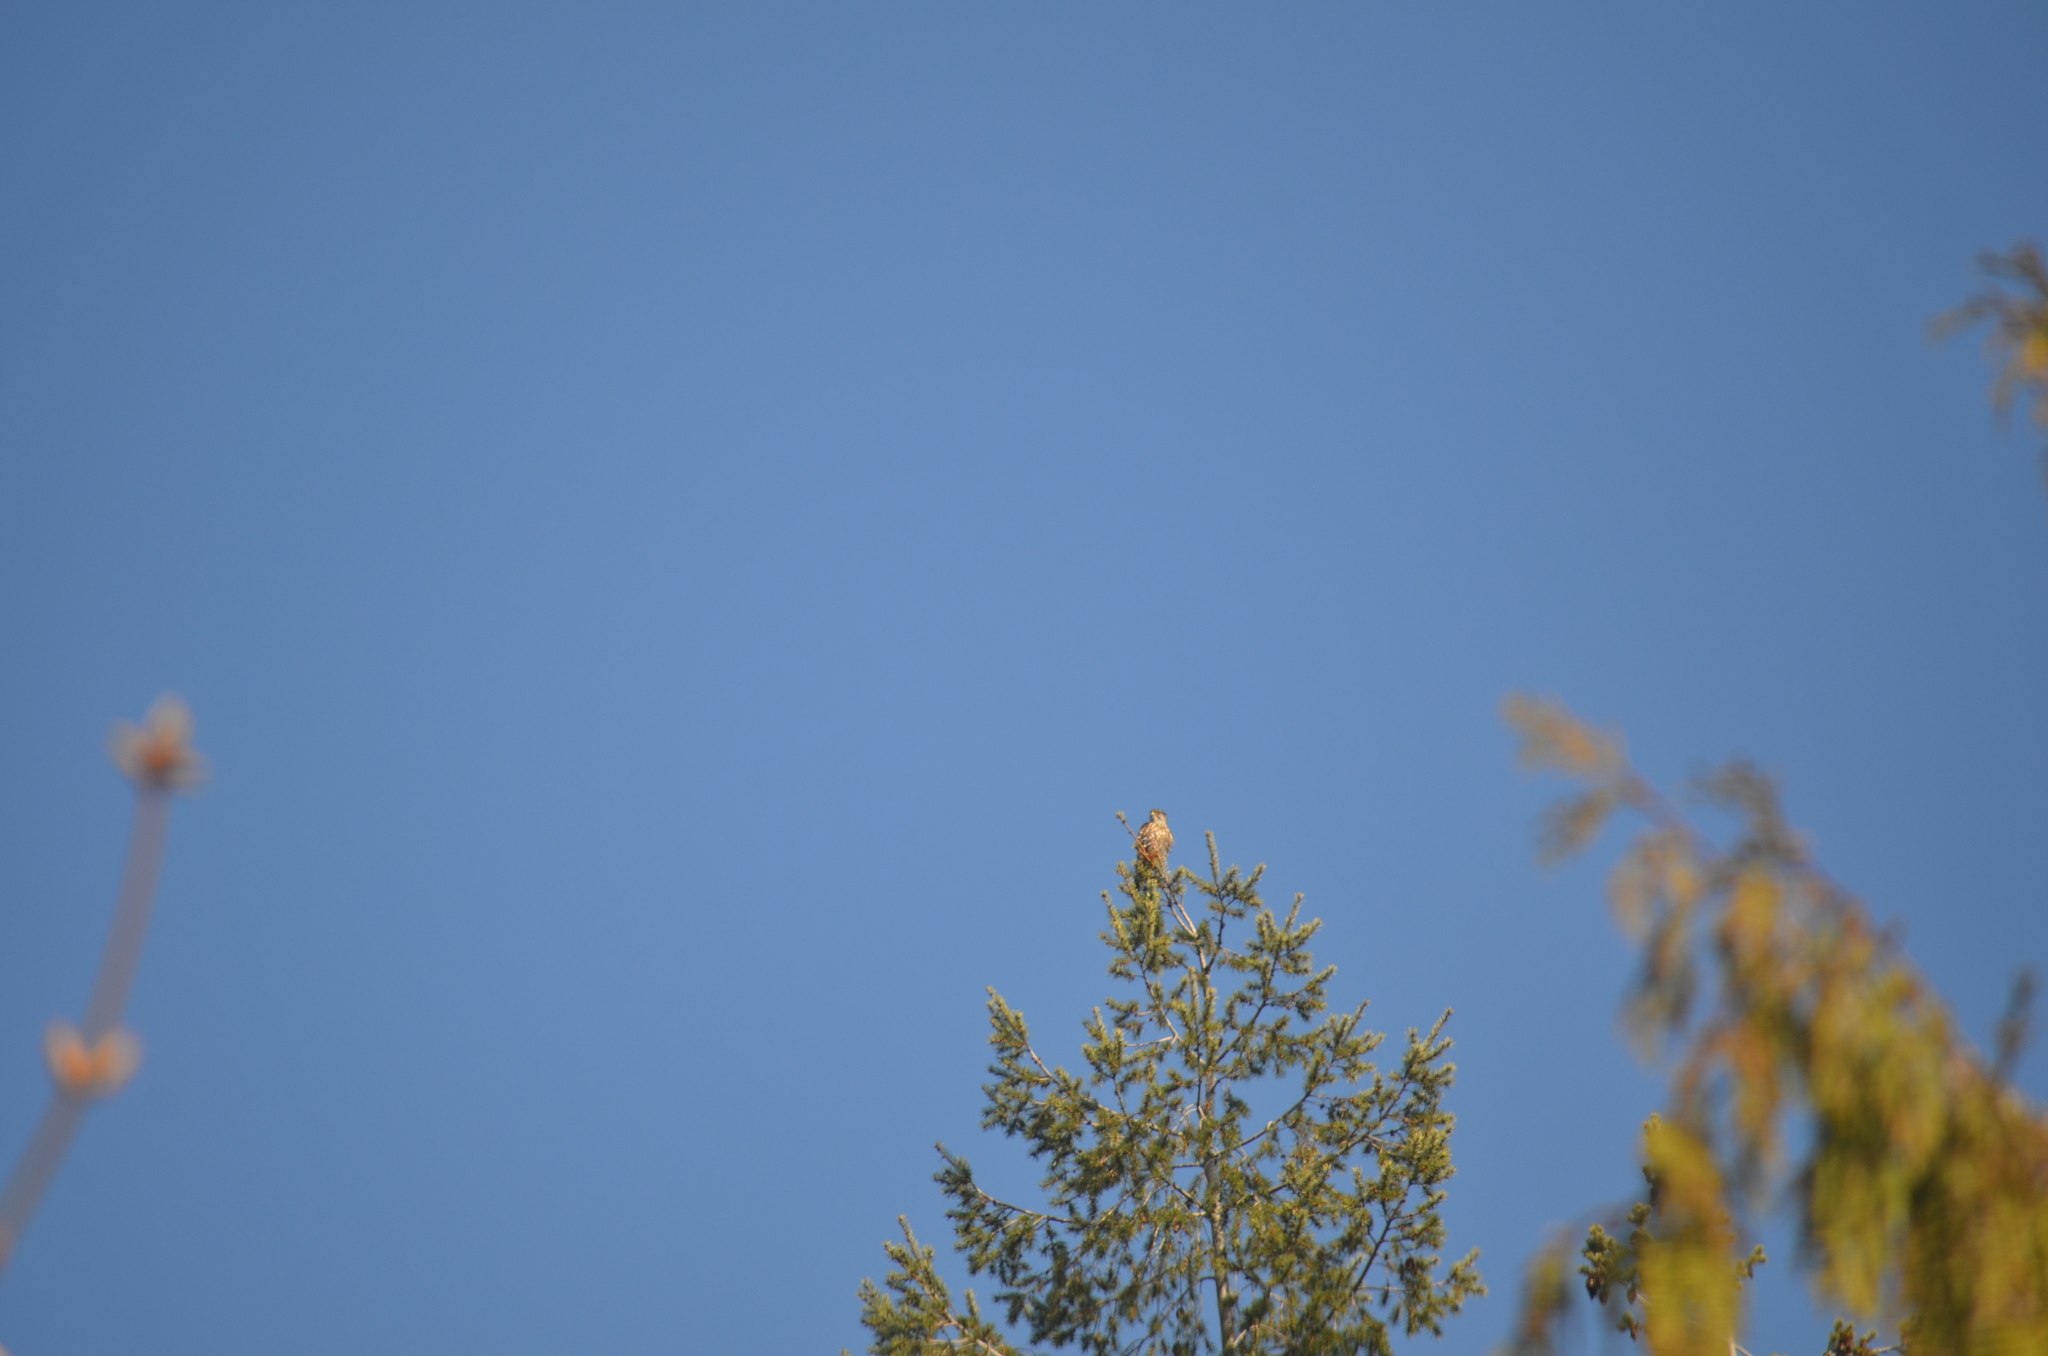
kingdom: Animalia
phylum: Chordata
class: Aves
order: Falconiformes
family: Falconidae
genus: Falco
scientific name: Falco columbarius
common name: Merlin
